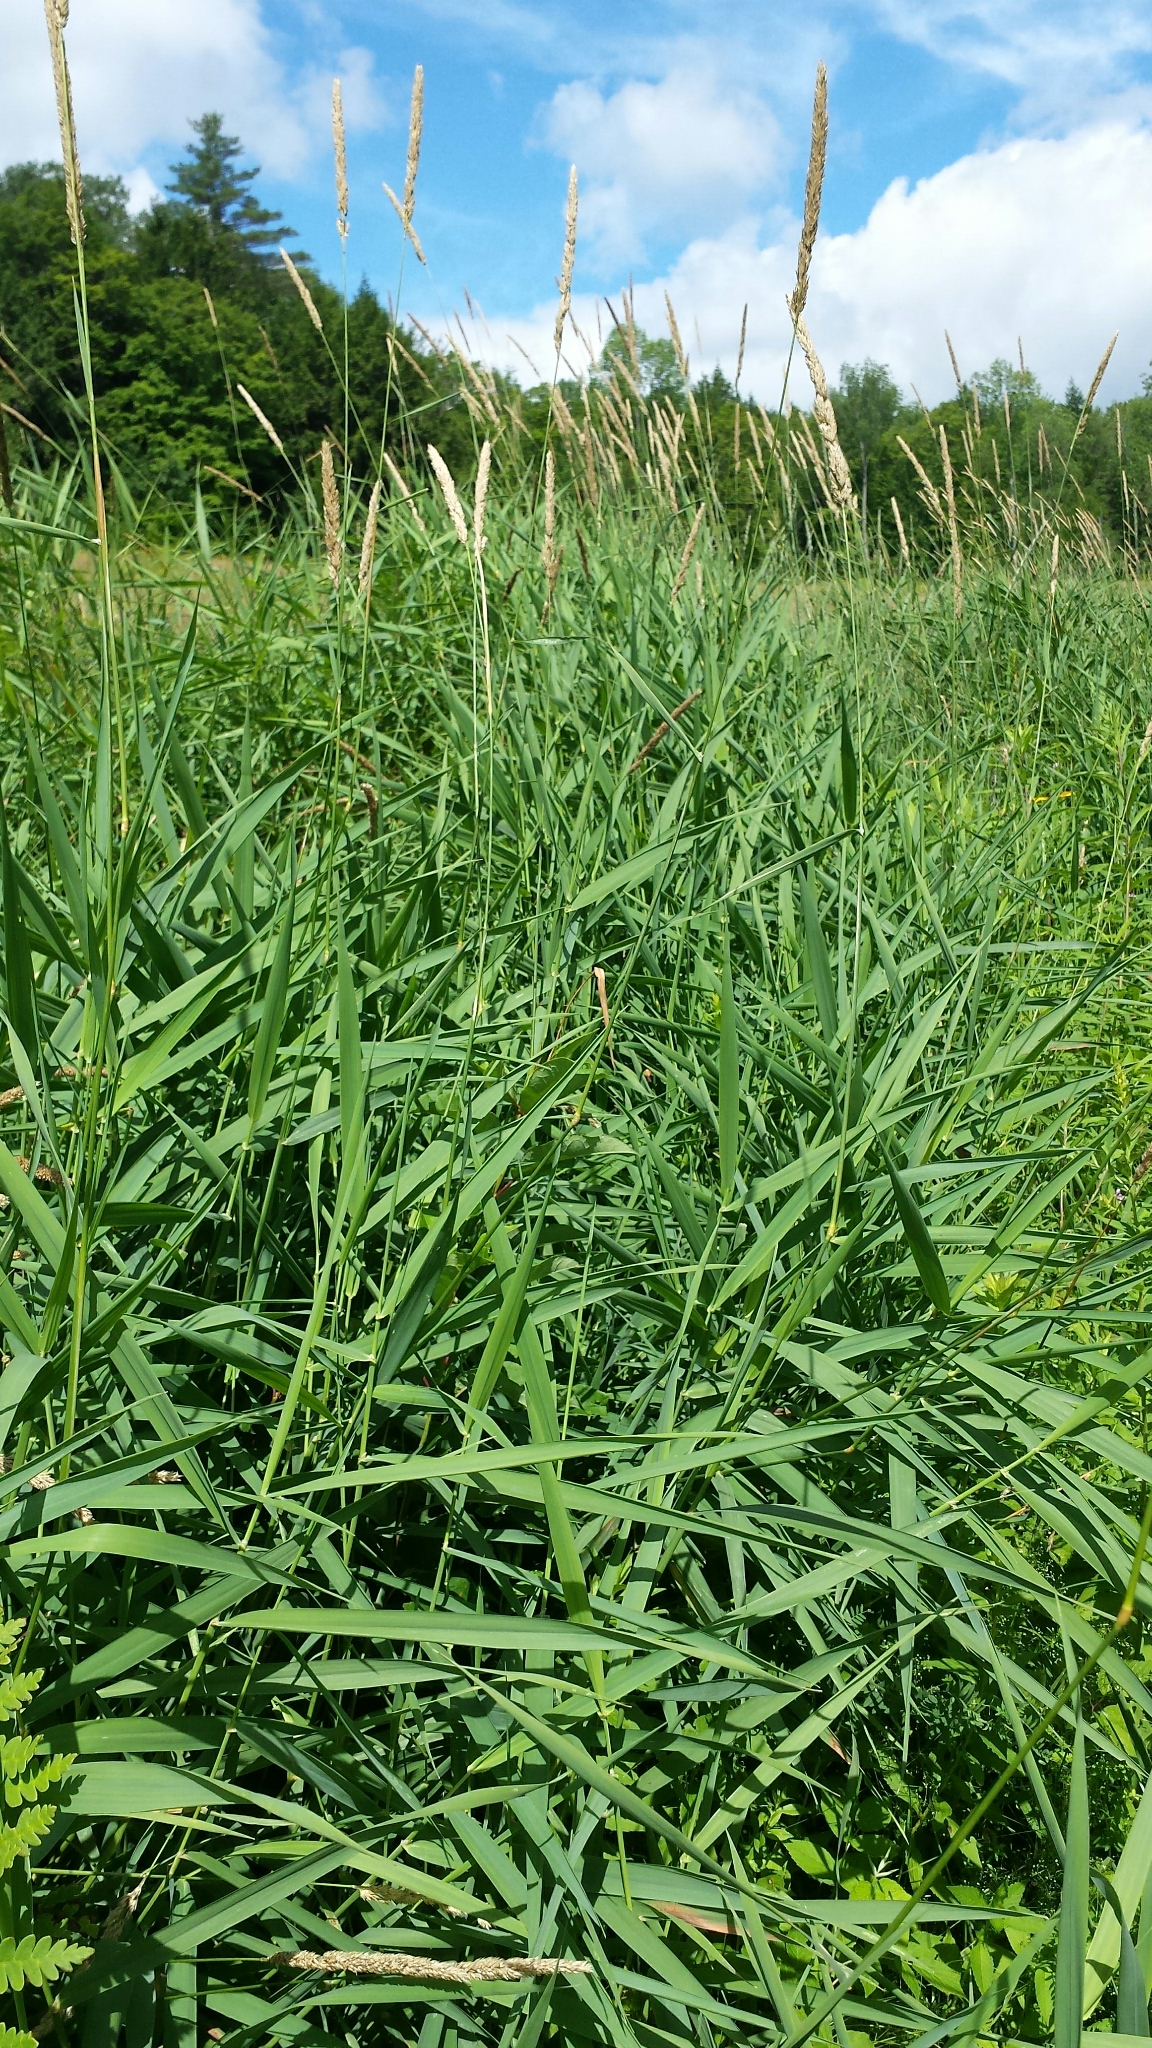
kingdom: Plantae
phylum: Tracheophyta
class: Liliopsida
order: Poales
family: Poaceae
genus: Phalaris
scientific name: Phalaris arundinacea
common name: Reed canary-grass
